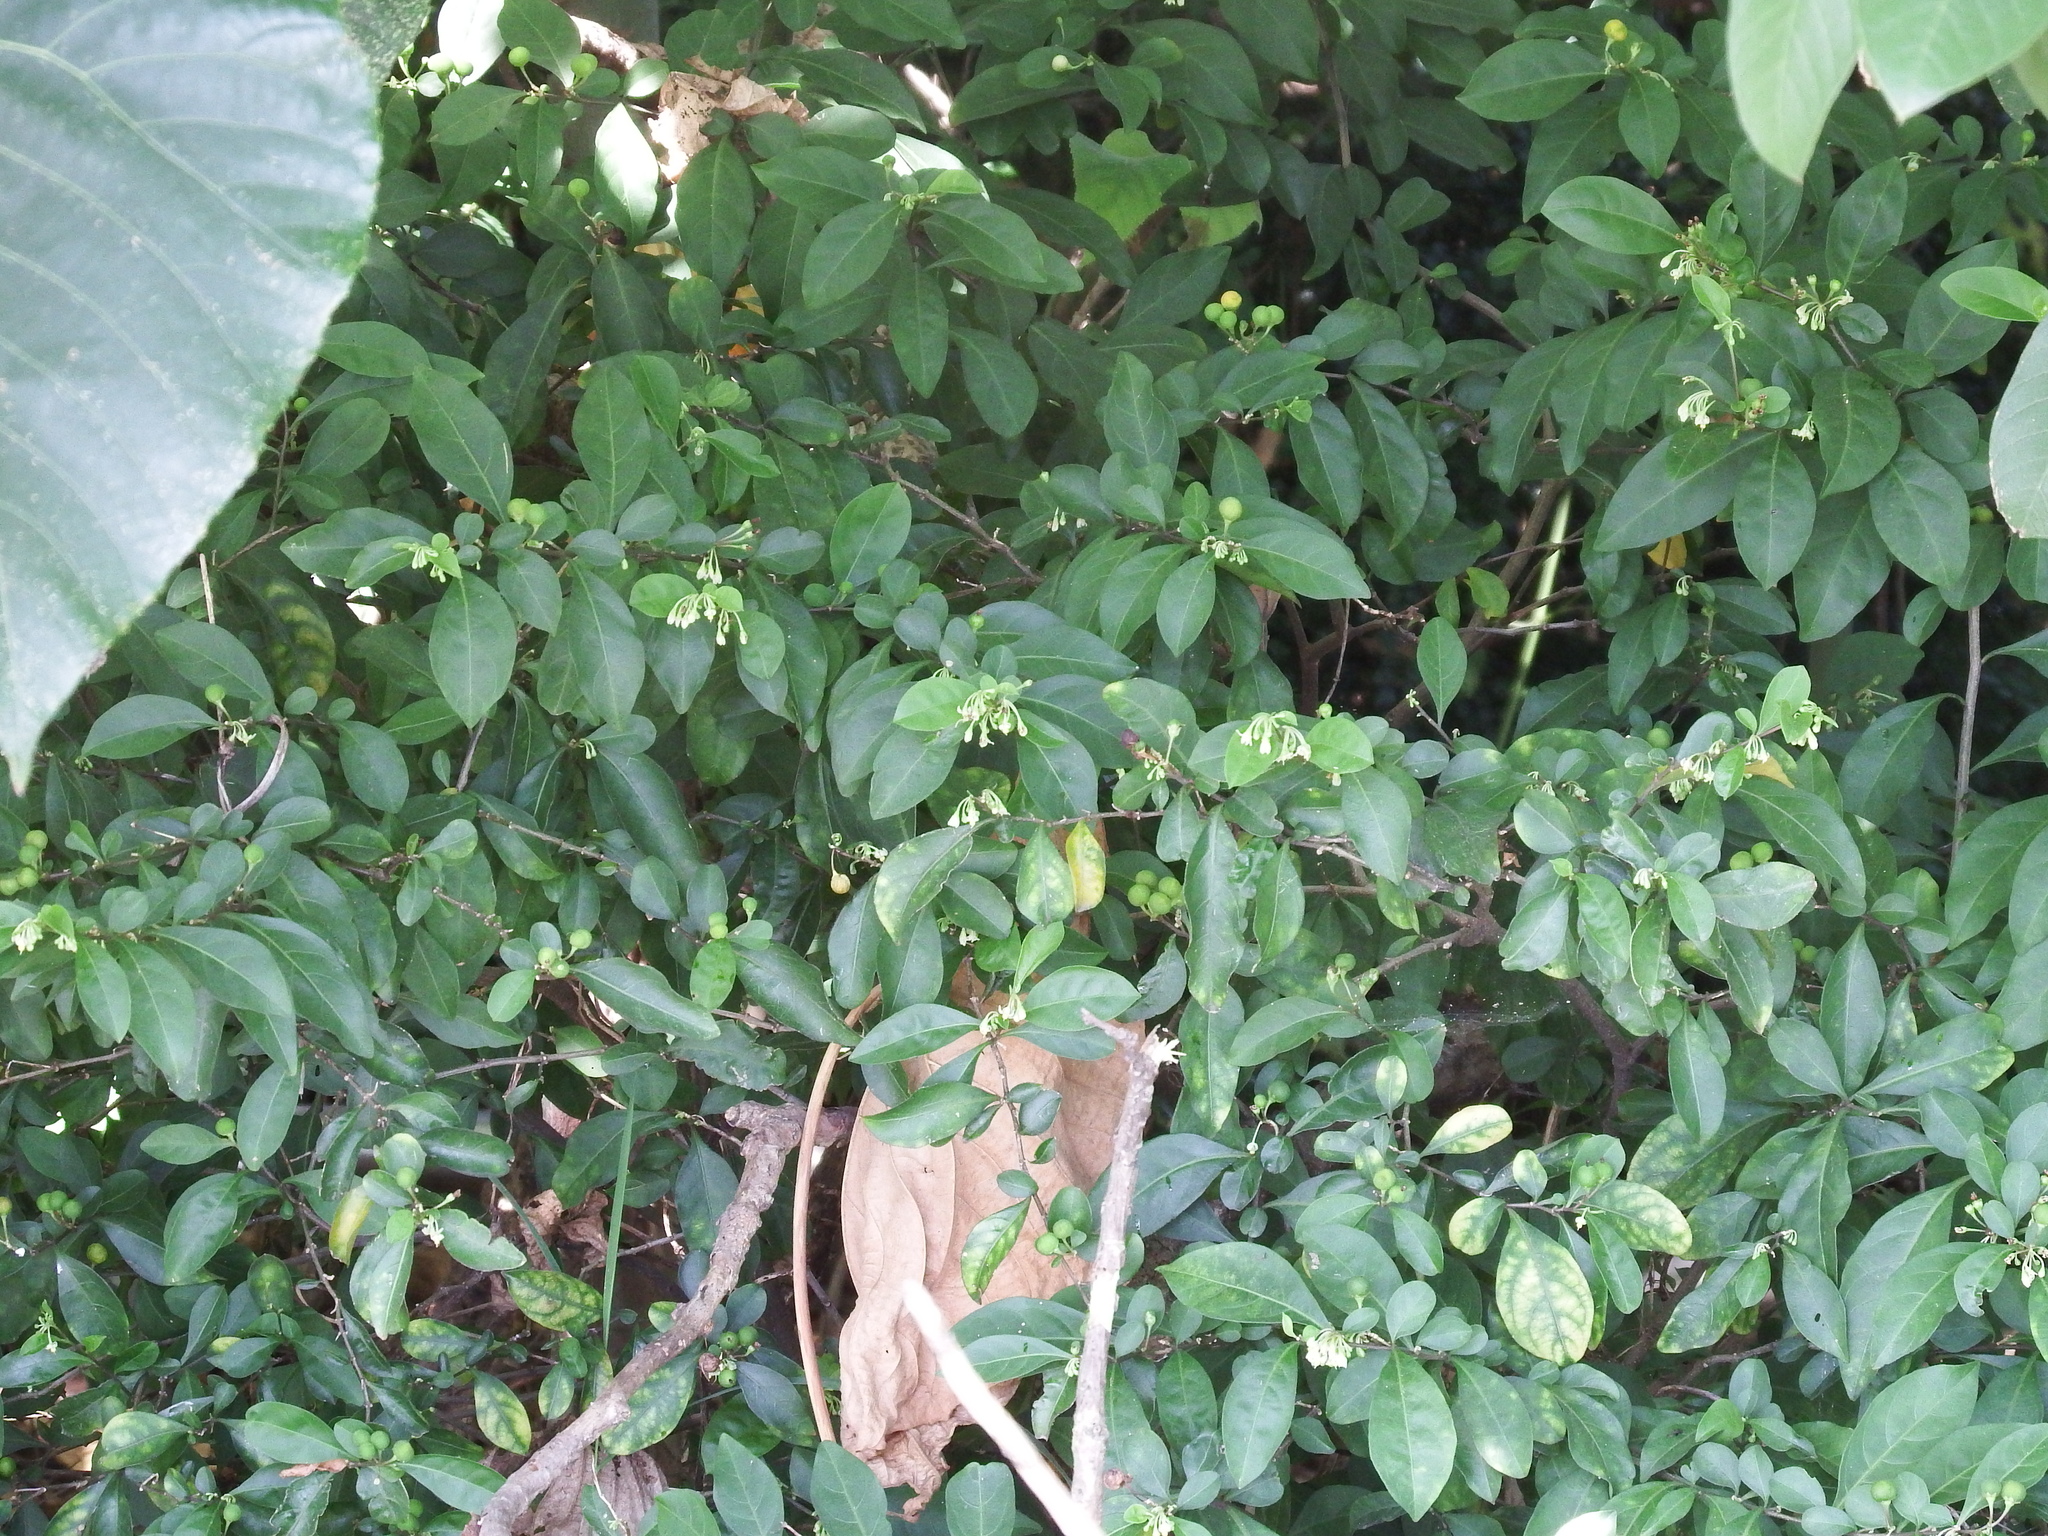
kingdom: Plantae
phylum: Tracheophyta
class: Magnoliopsida
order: Solanales
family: Solanaceae
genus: Solanum
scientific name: Solanum diphyllum
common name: Twoleaf nightshade
